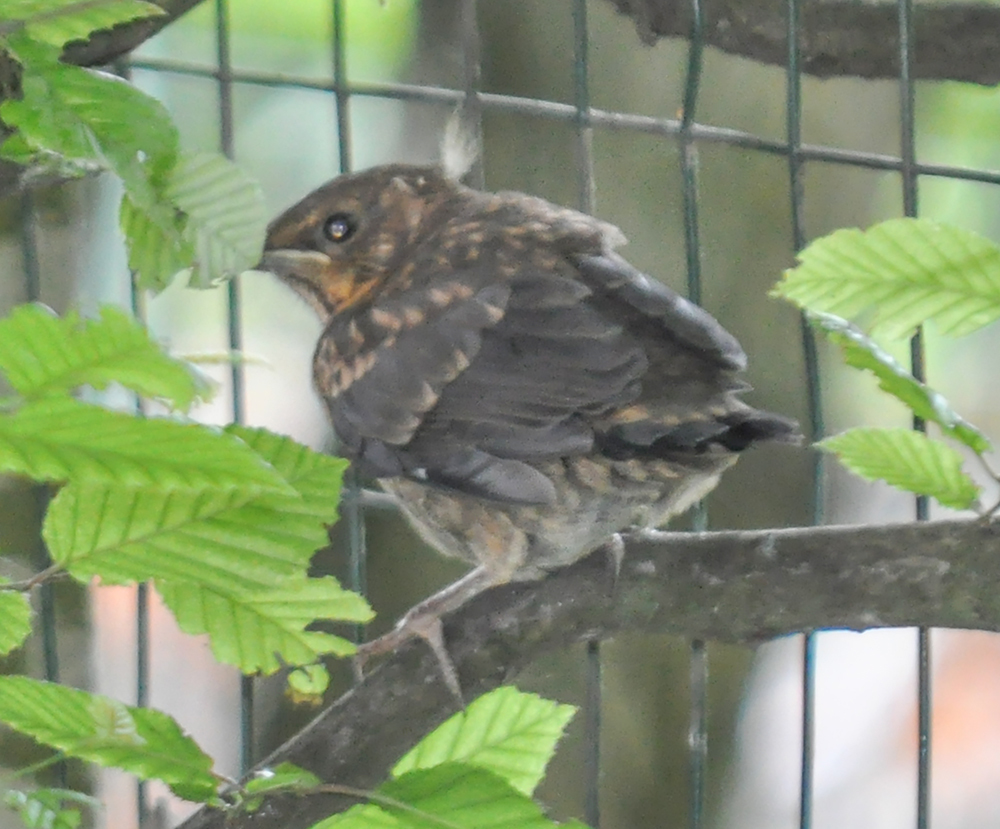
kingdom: Animalia
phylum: Chordata
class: Aves
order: Passeriformes
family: Turdidae
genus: Turdus
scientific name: Turdus merula
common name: Common blackbird
